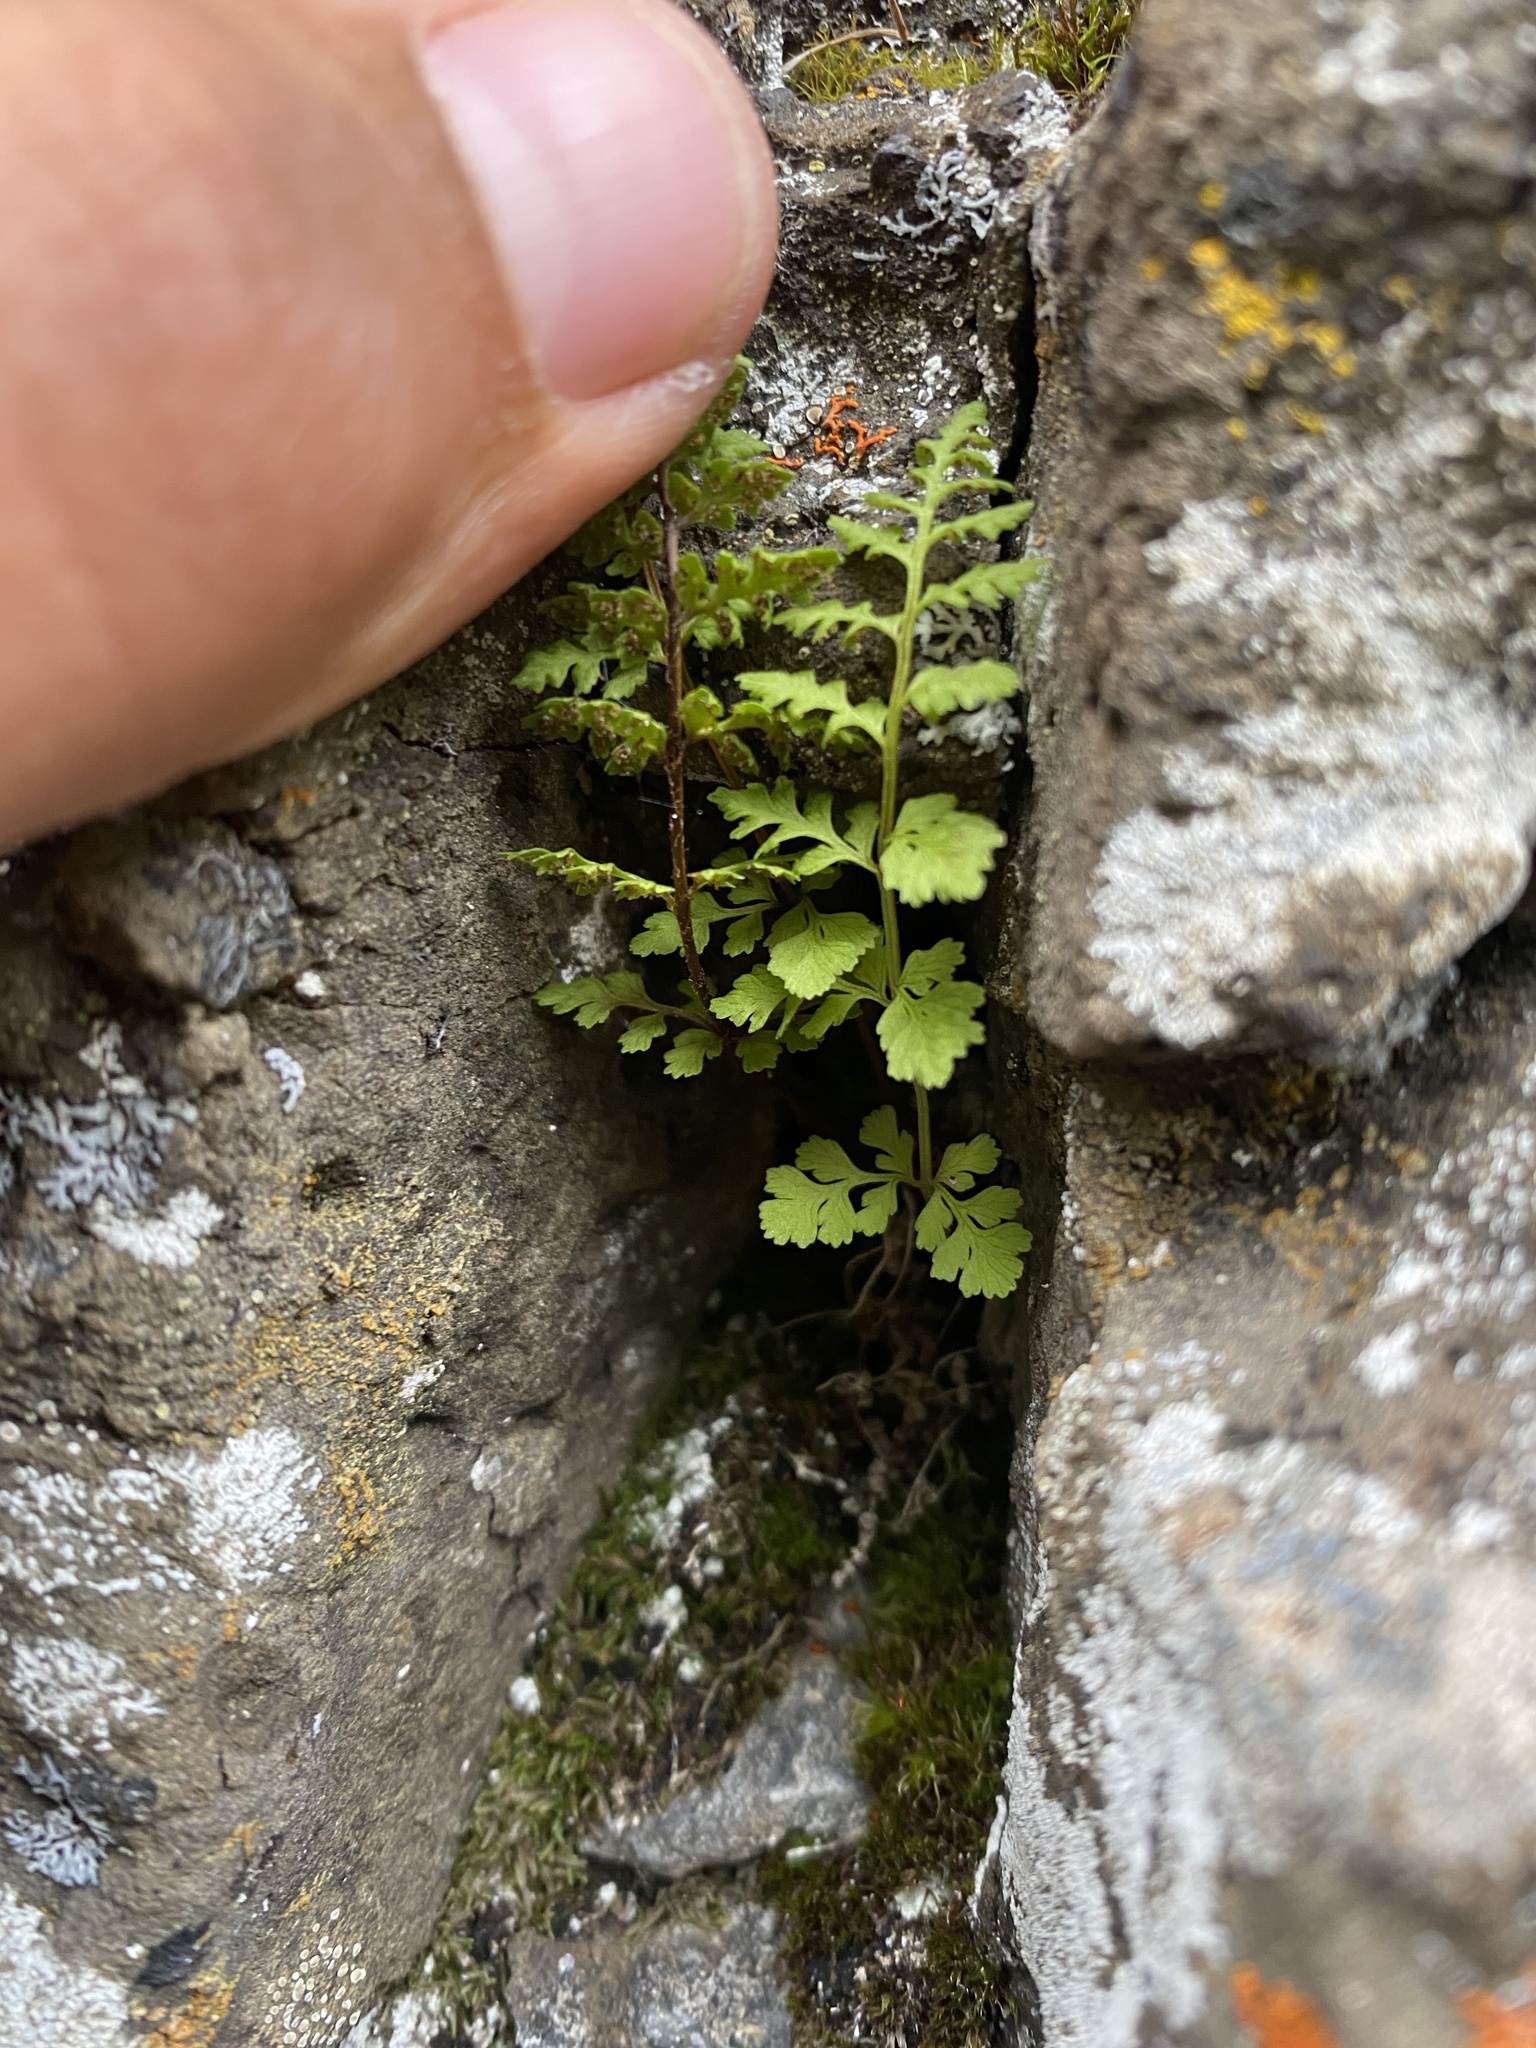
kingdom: Plantae
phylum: Tracheophyta
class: Polypodiopsida
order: Polypodiales
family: Cystopteridaceae
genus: Cystopteris
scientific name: Cystopteris fragilis
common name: Brittle bladder fern
